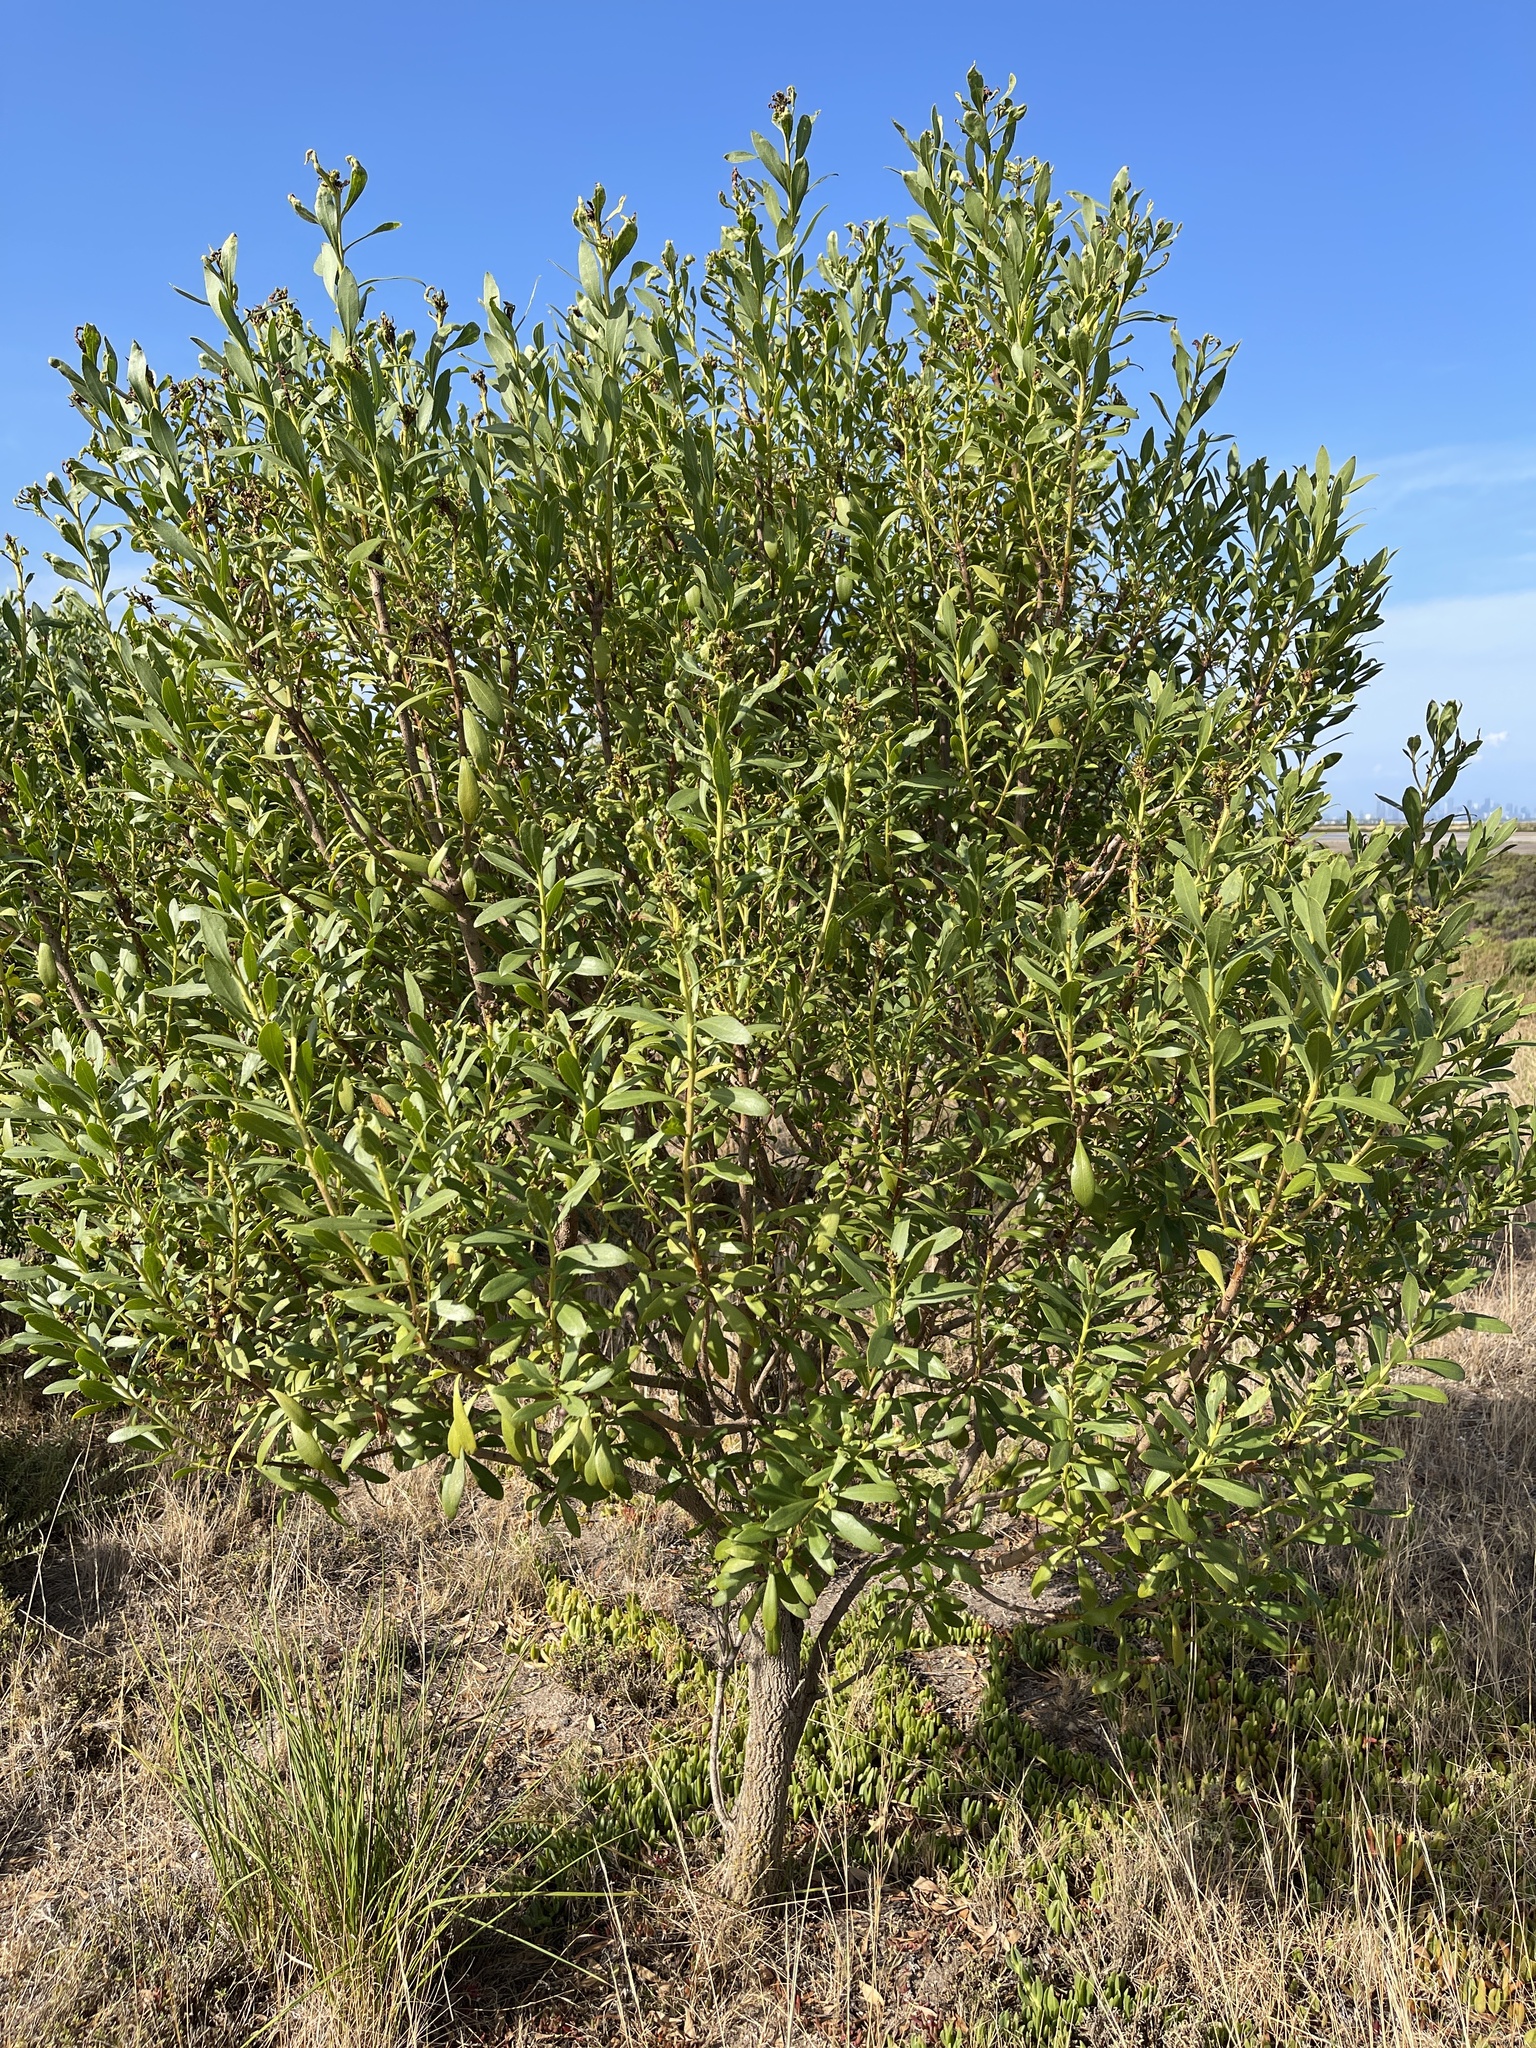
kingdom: Plantae
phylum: Tracheophyta
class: Magnoliopsida
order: Lamiales
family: Scrophulariaceae
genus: Myoporum
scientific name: Myoporum insulare
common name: Common boobialla
